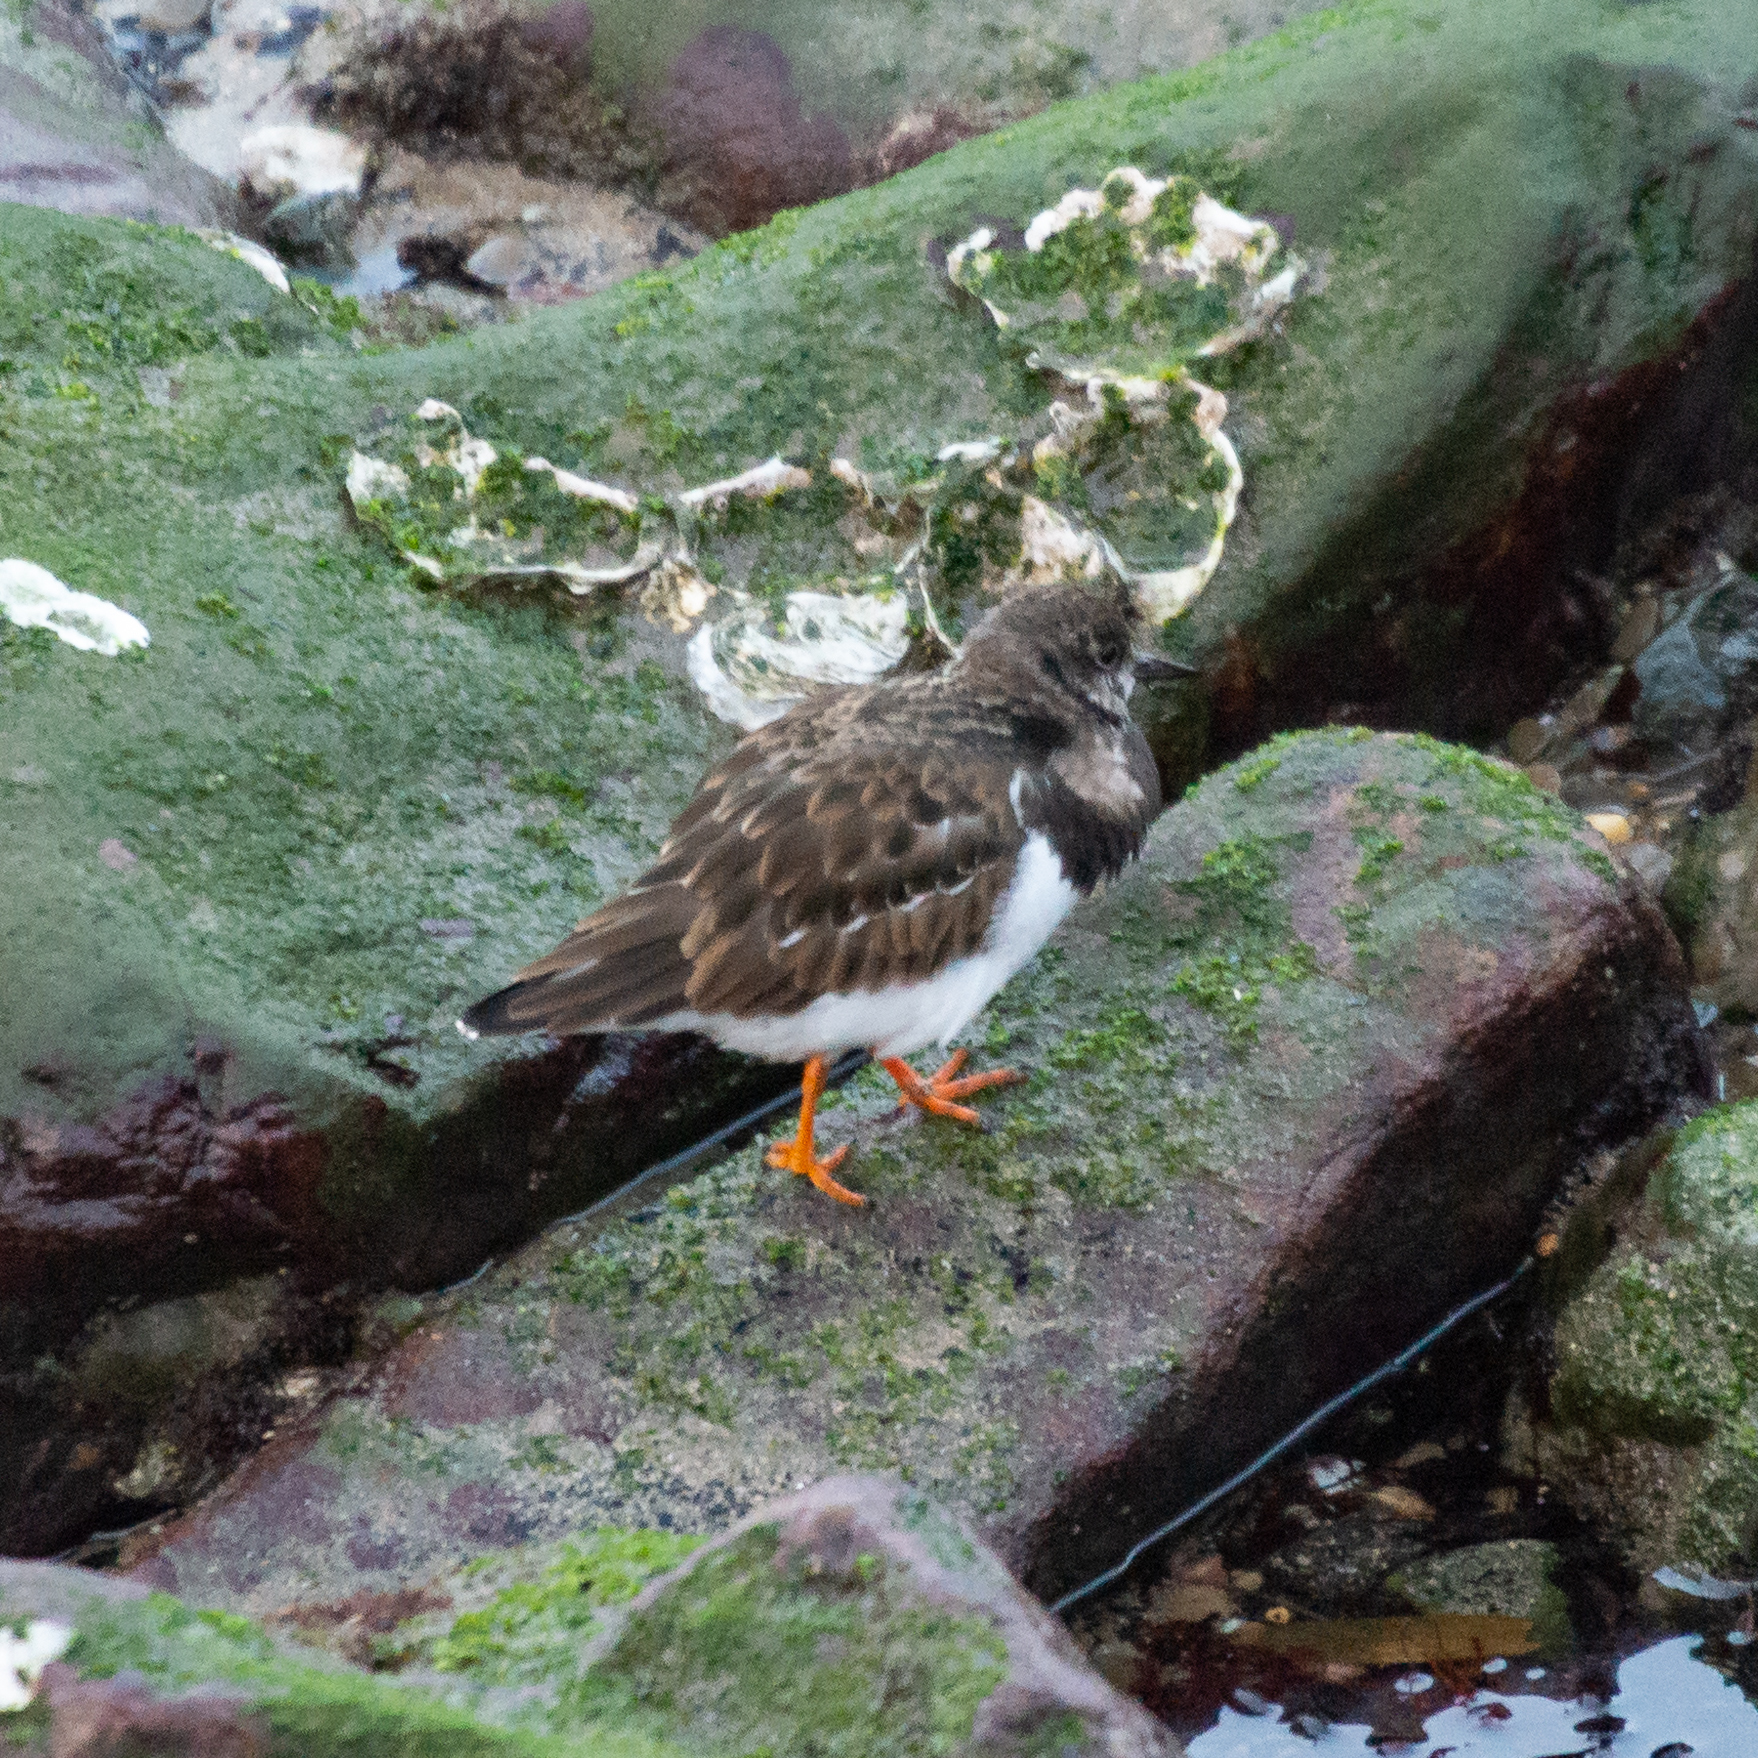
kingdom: Animalia
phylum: Chordata
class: Aves
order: Charadriiformes
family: Scolopacidae
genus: Arenaria
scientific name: Arenaria interpres
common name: Ruddy turnstone
